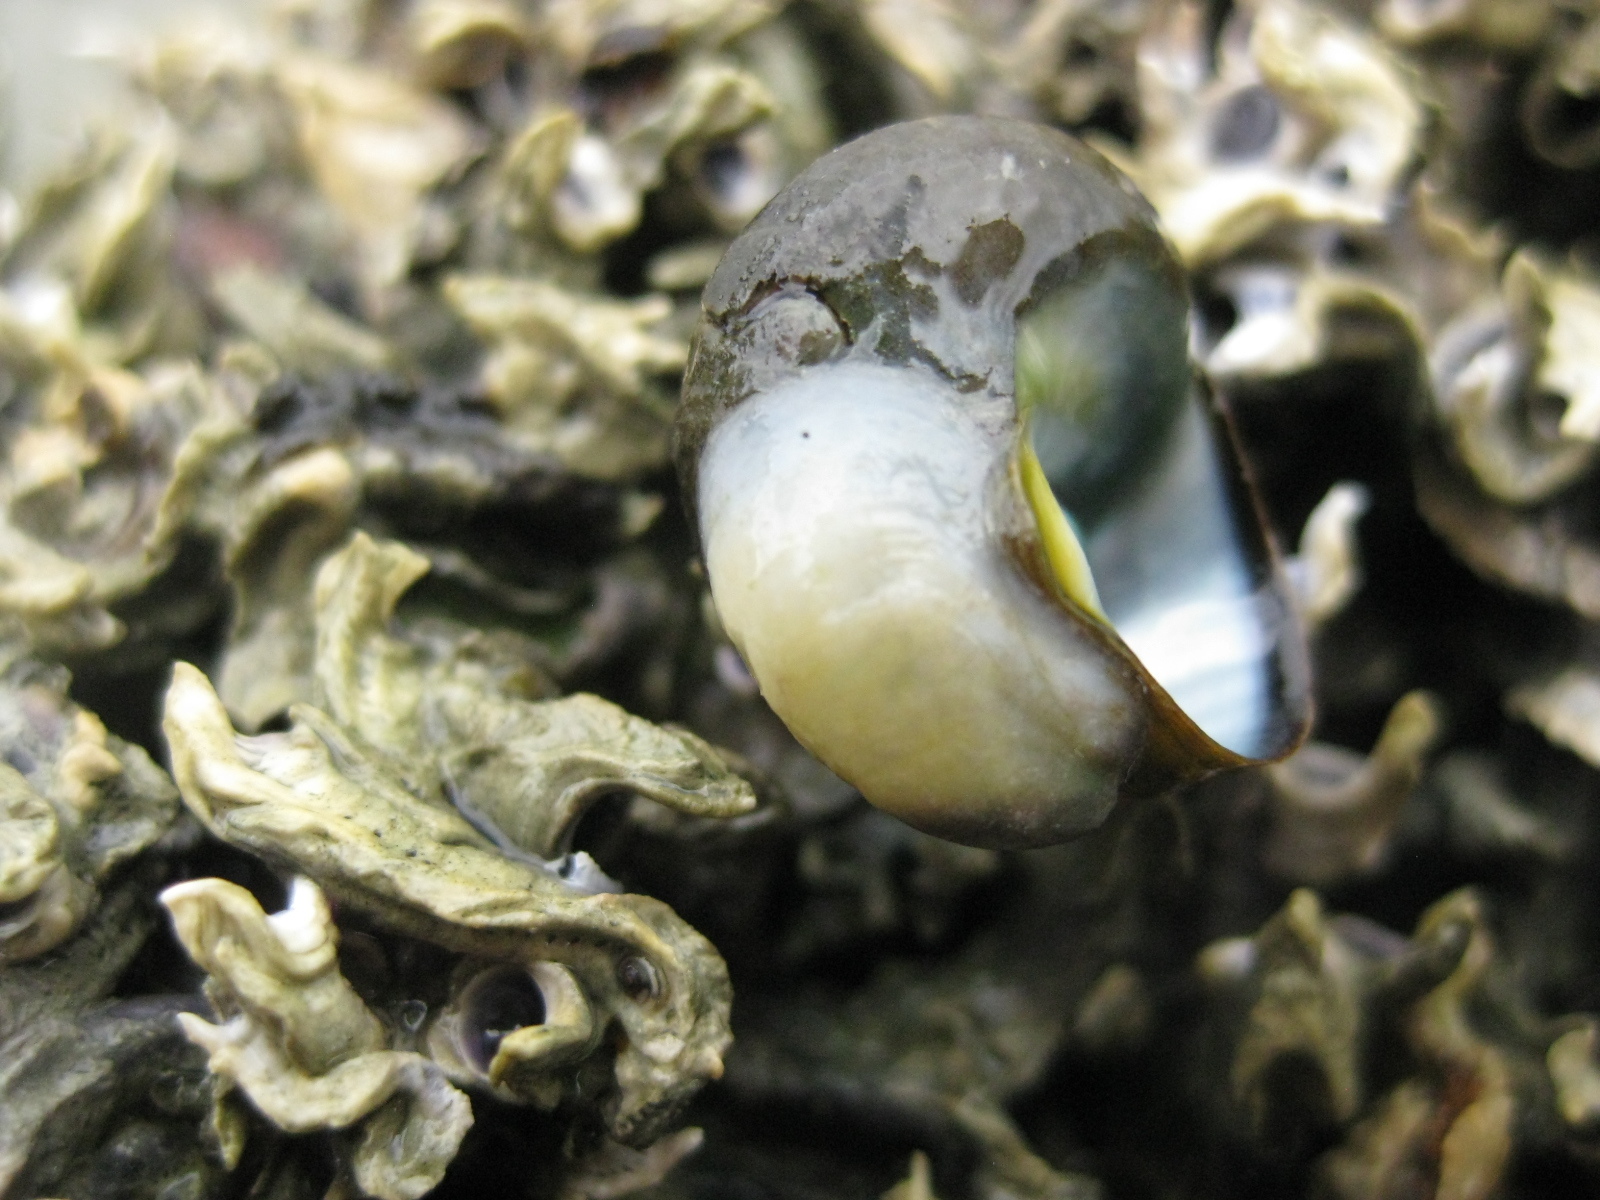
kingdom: Animalia
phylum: Mollusca
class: Gastropoda
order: Littorinimorpha
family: Calyptraeidae
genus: Maoricrypta
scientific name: Maoricrypta monoxyla
